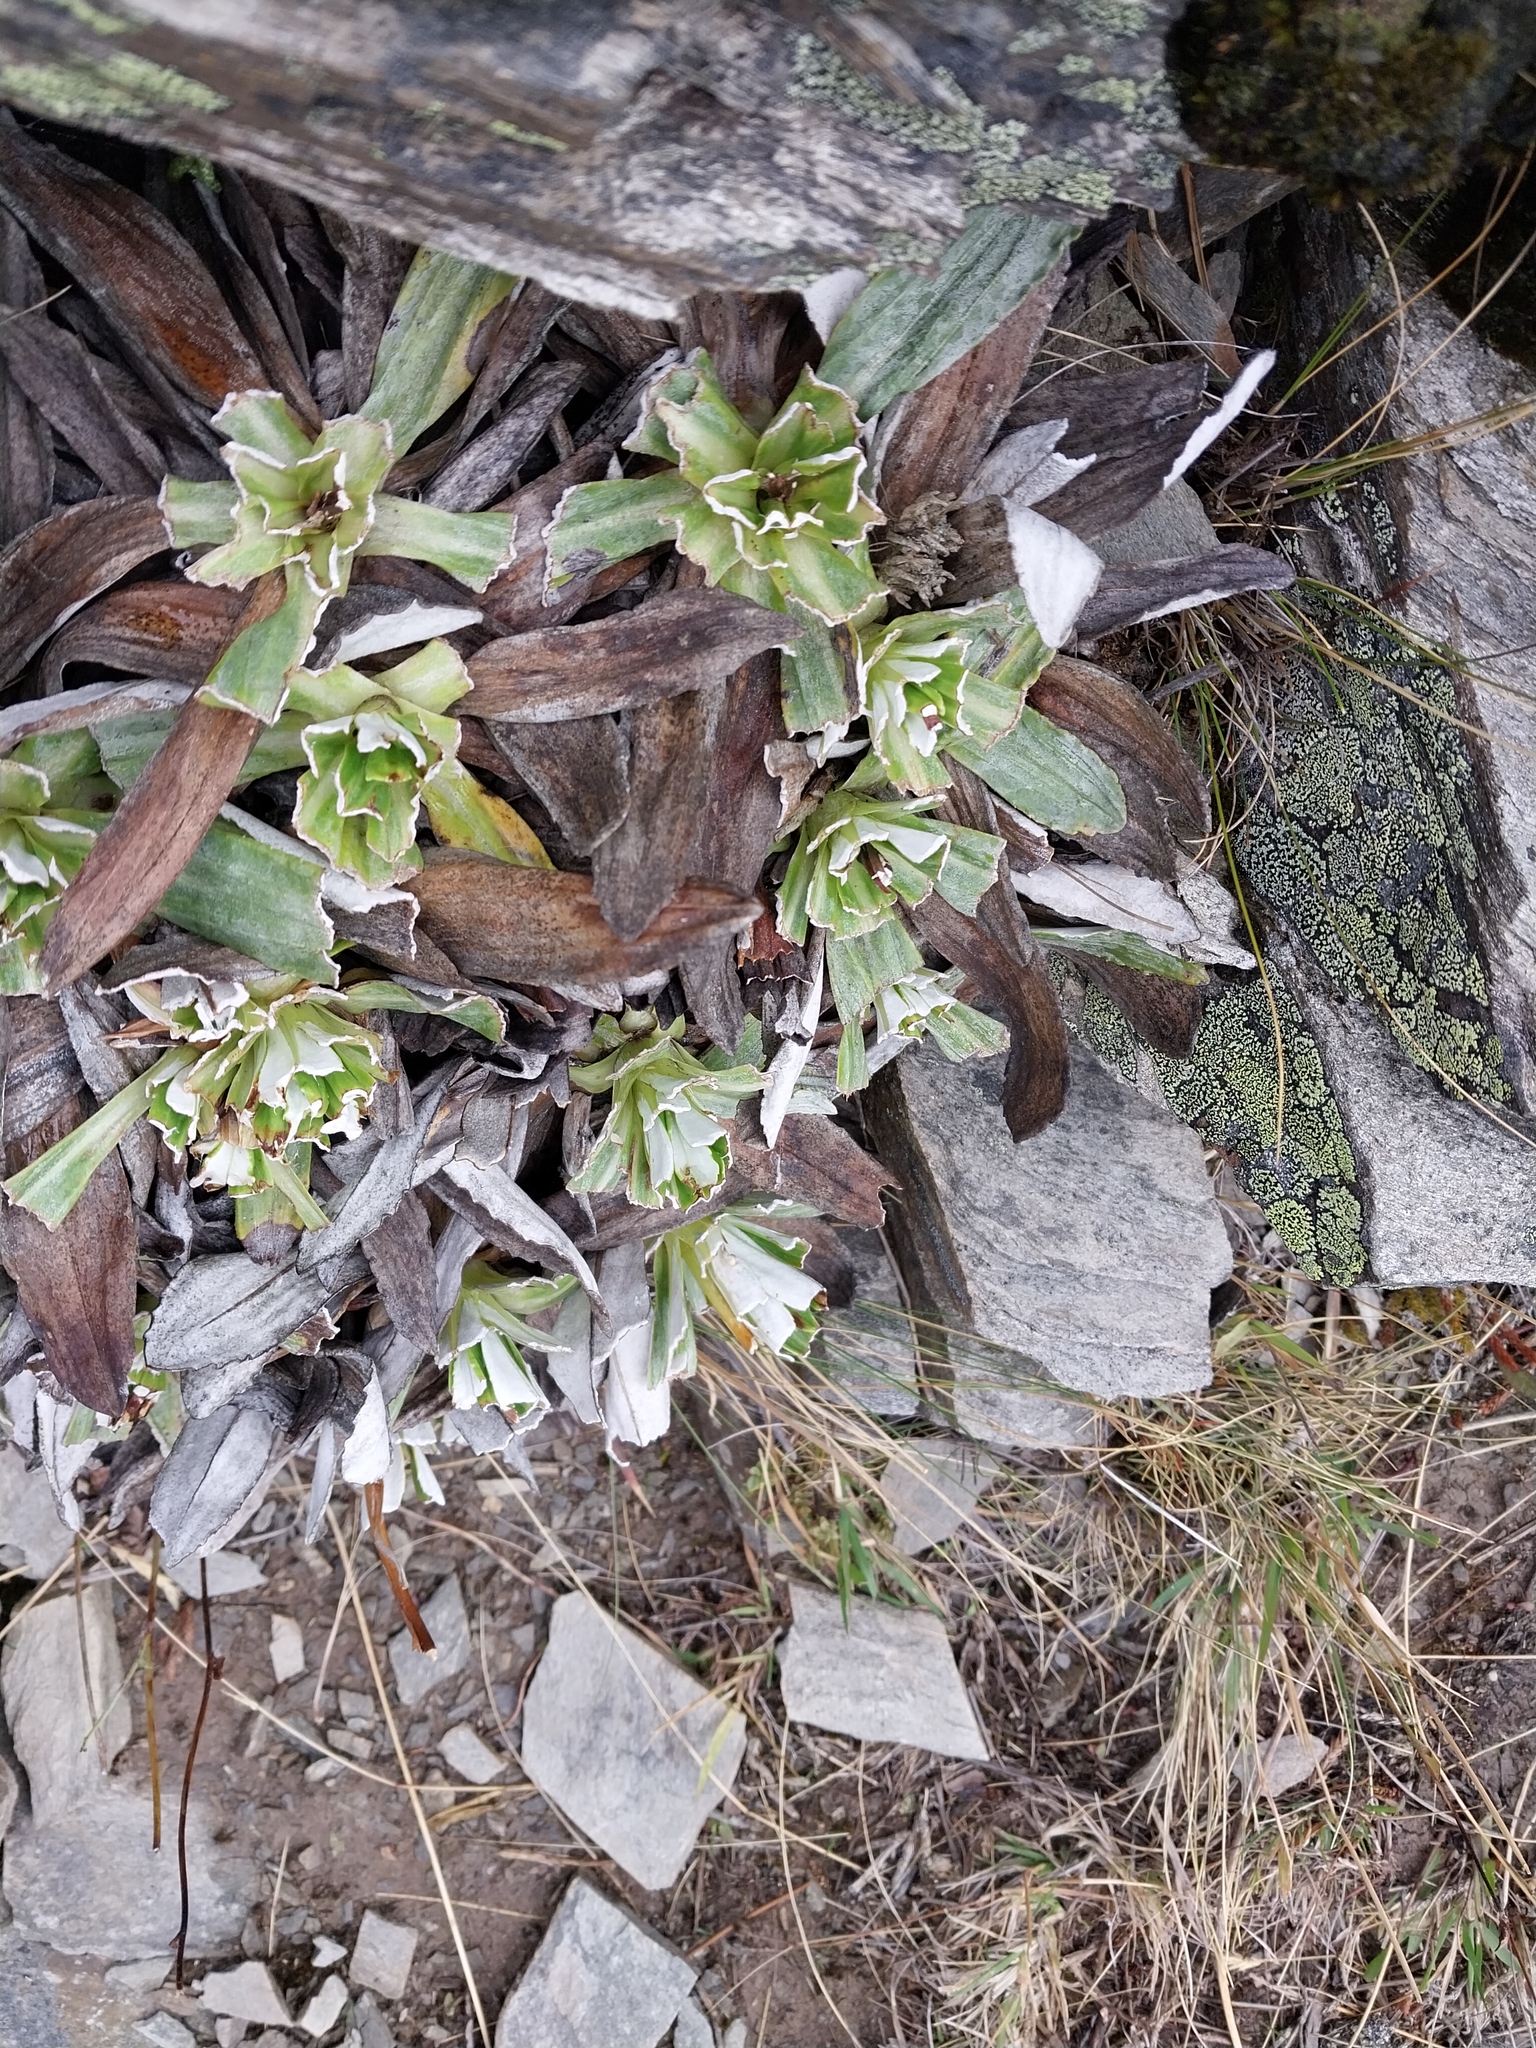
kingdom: Plantae
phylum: Tracheophyta
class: Magnoliopsida
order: Asterales
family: Asteraceae
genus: Celmisia
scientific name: Celmisia densiflora
